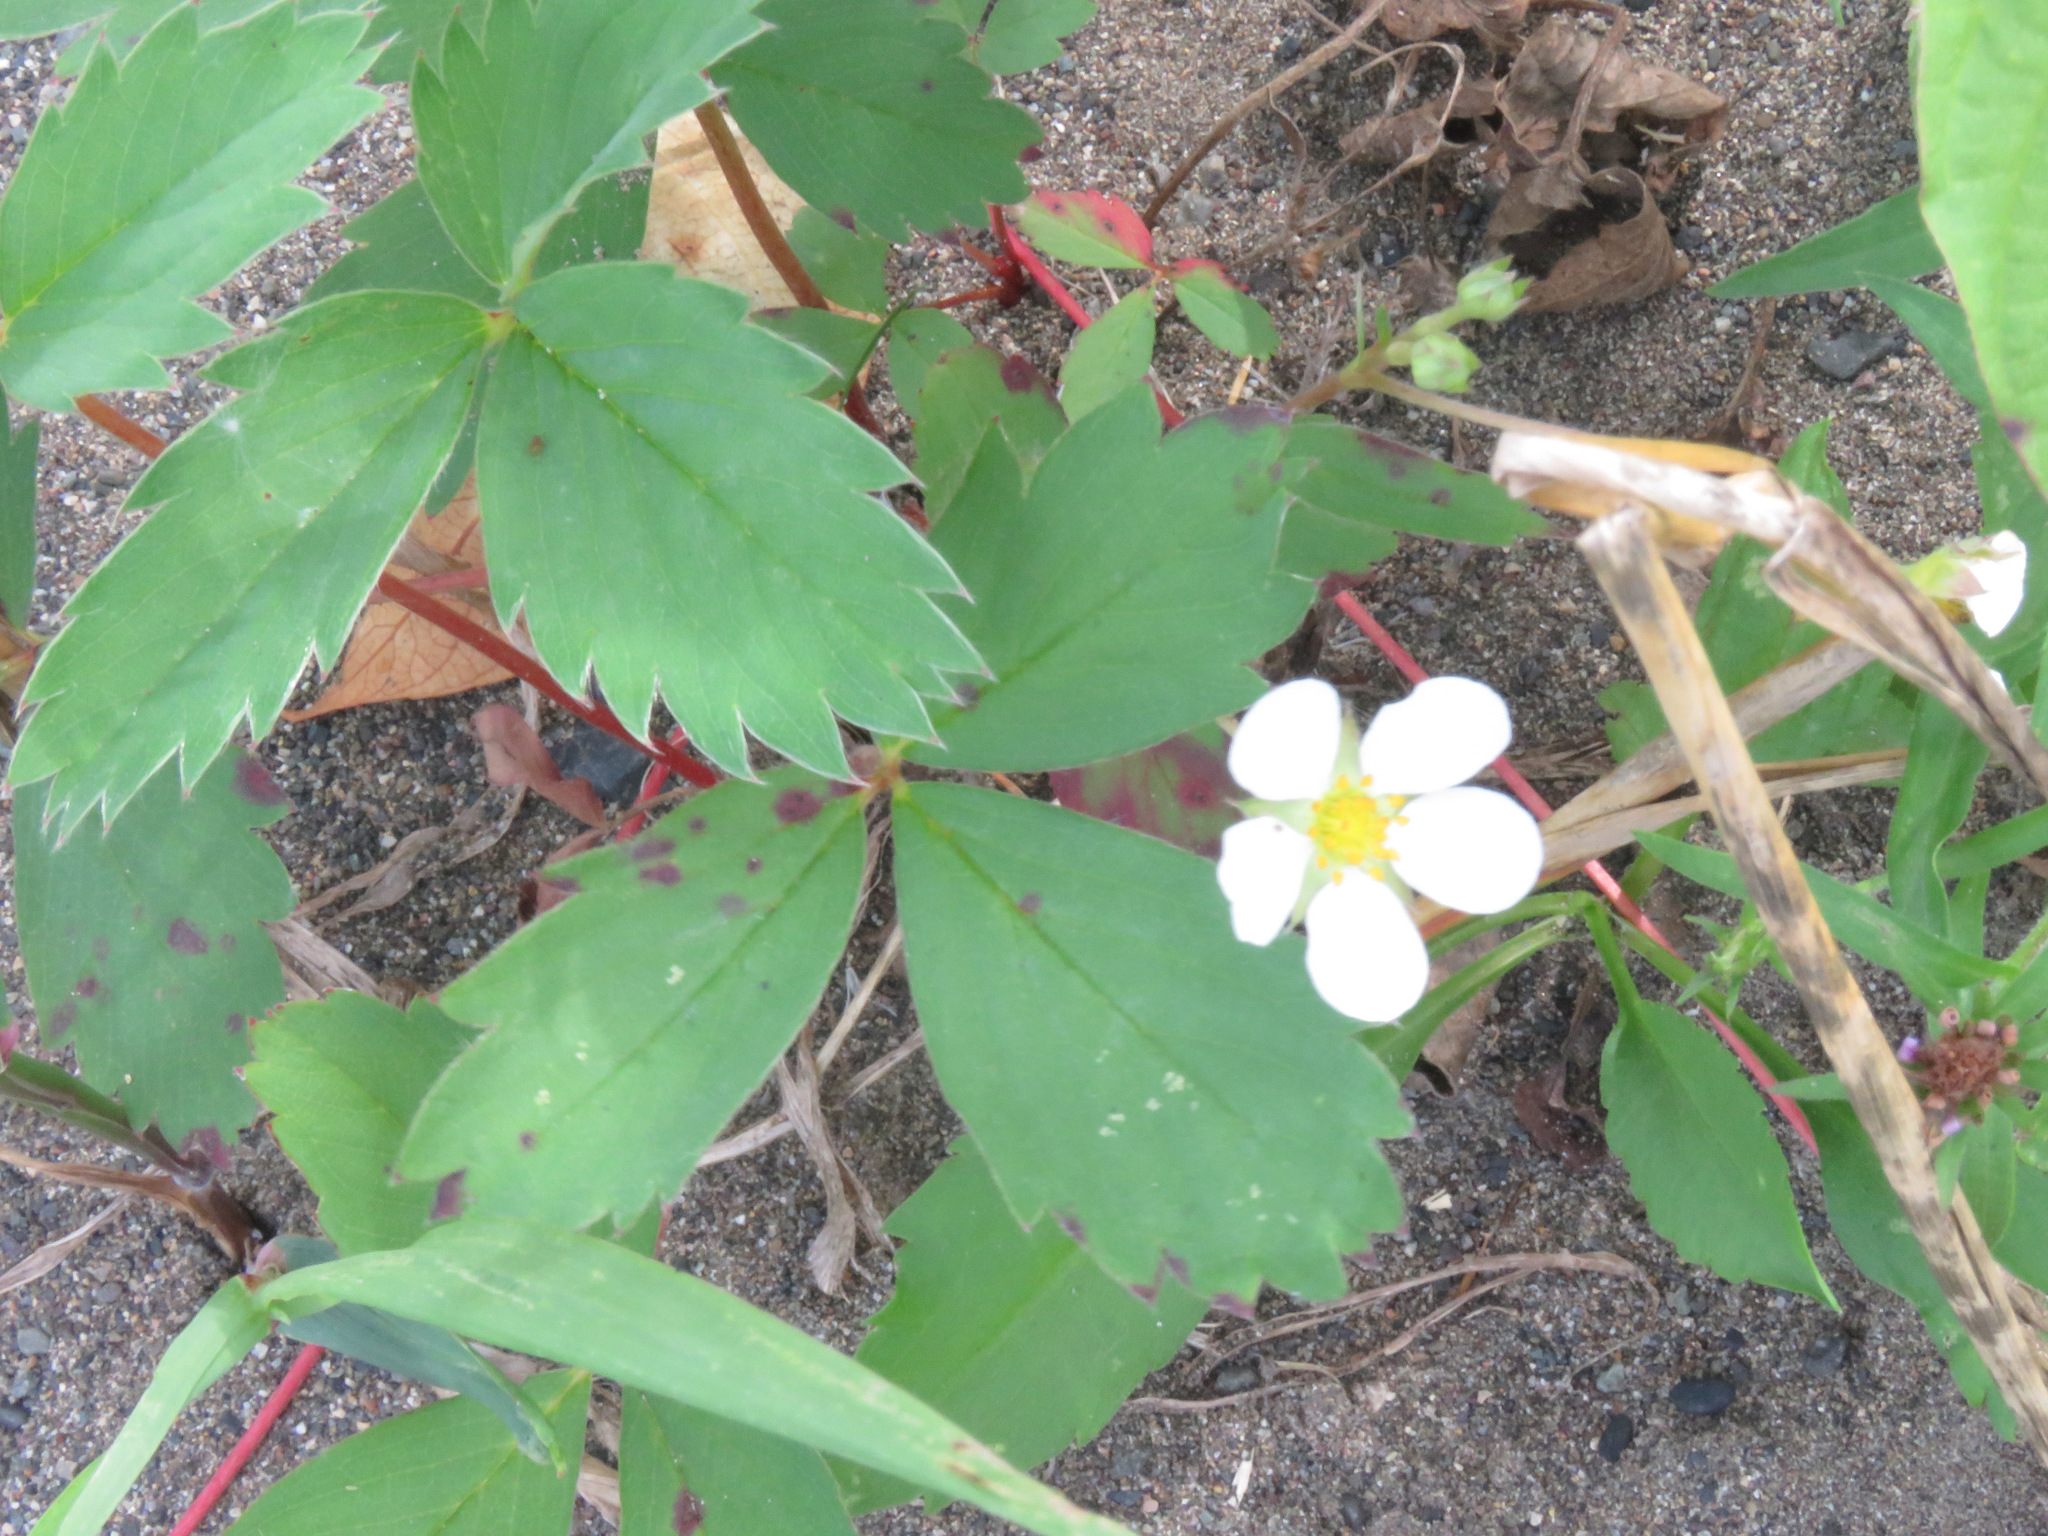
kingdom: Plantae
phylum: Tracheophyta
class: Magnoliopsida
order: Rosales
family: Rosaceae
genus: Fragaria
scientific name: Fragaria virginiana
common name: Thickleaved wild strawberry
